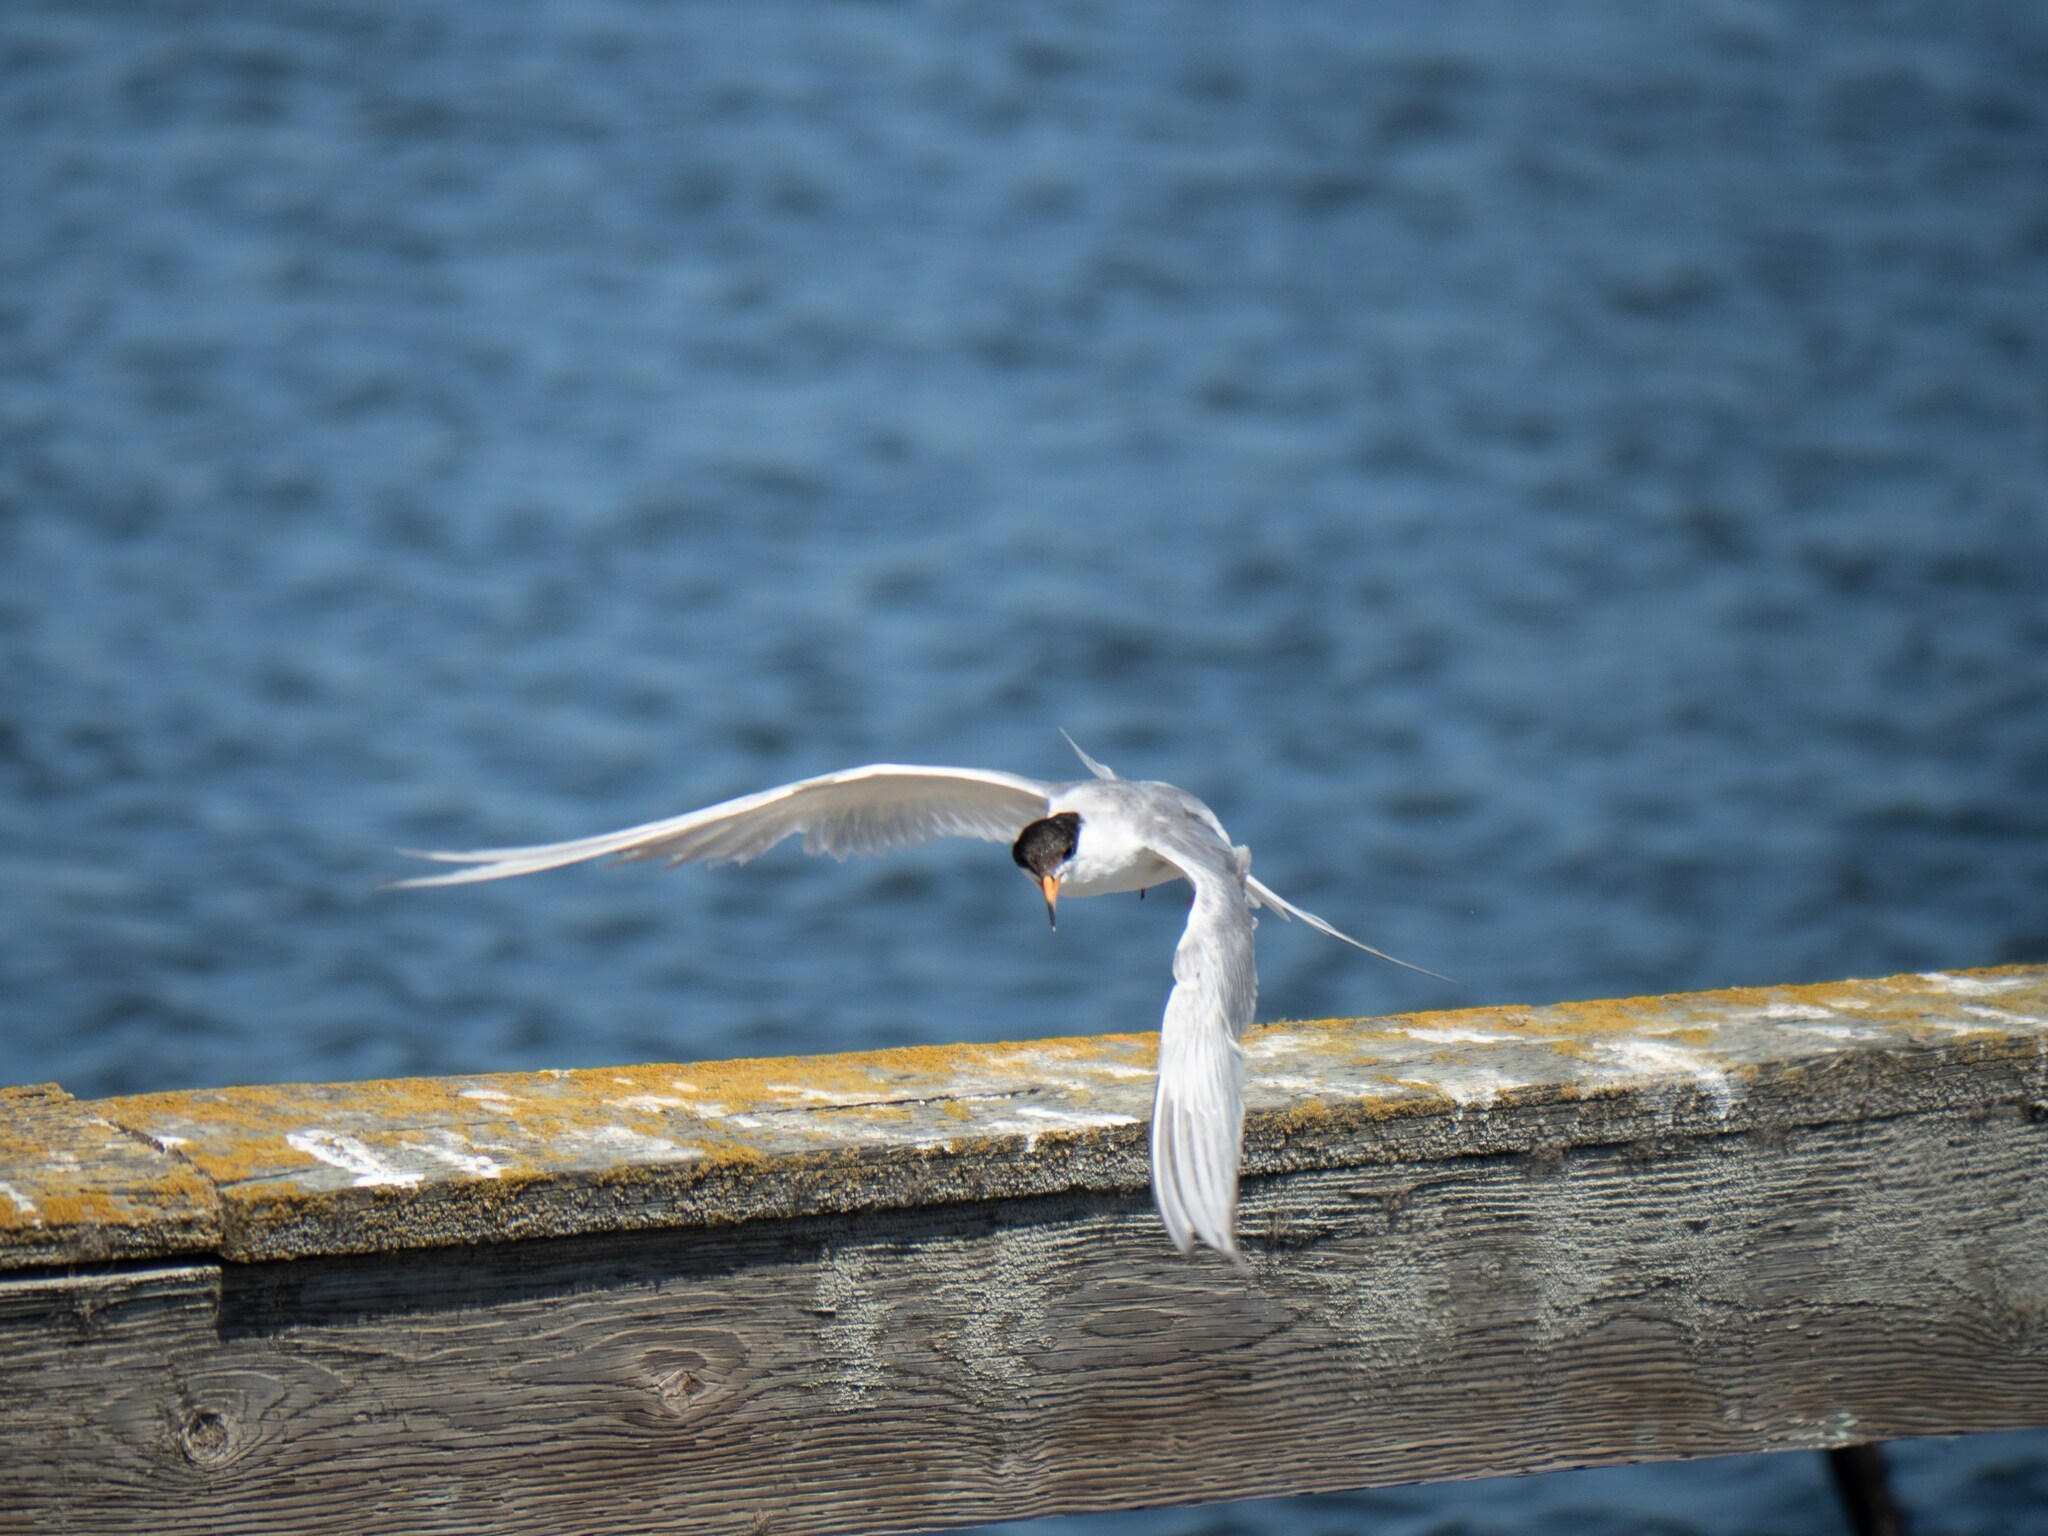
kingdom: Animalia
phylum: Chordata
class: Aves
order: Charadriiformes
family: Laridae
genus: Sterna
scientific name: Sterna forsteri
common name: Forster's tern
